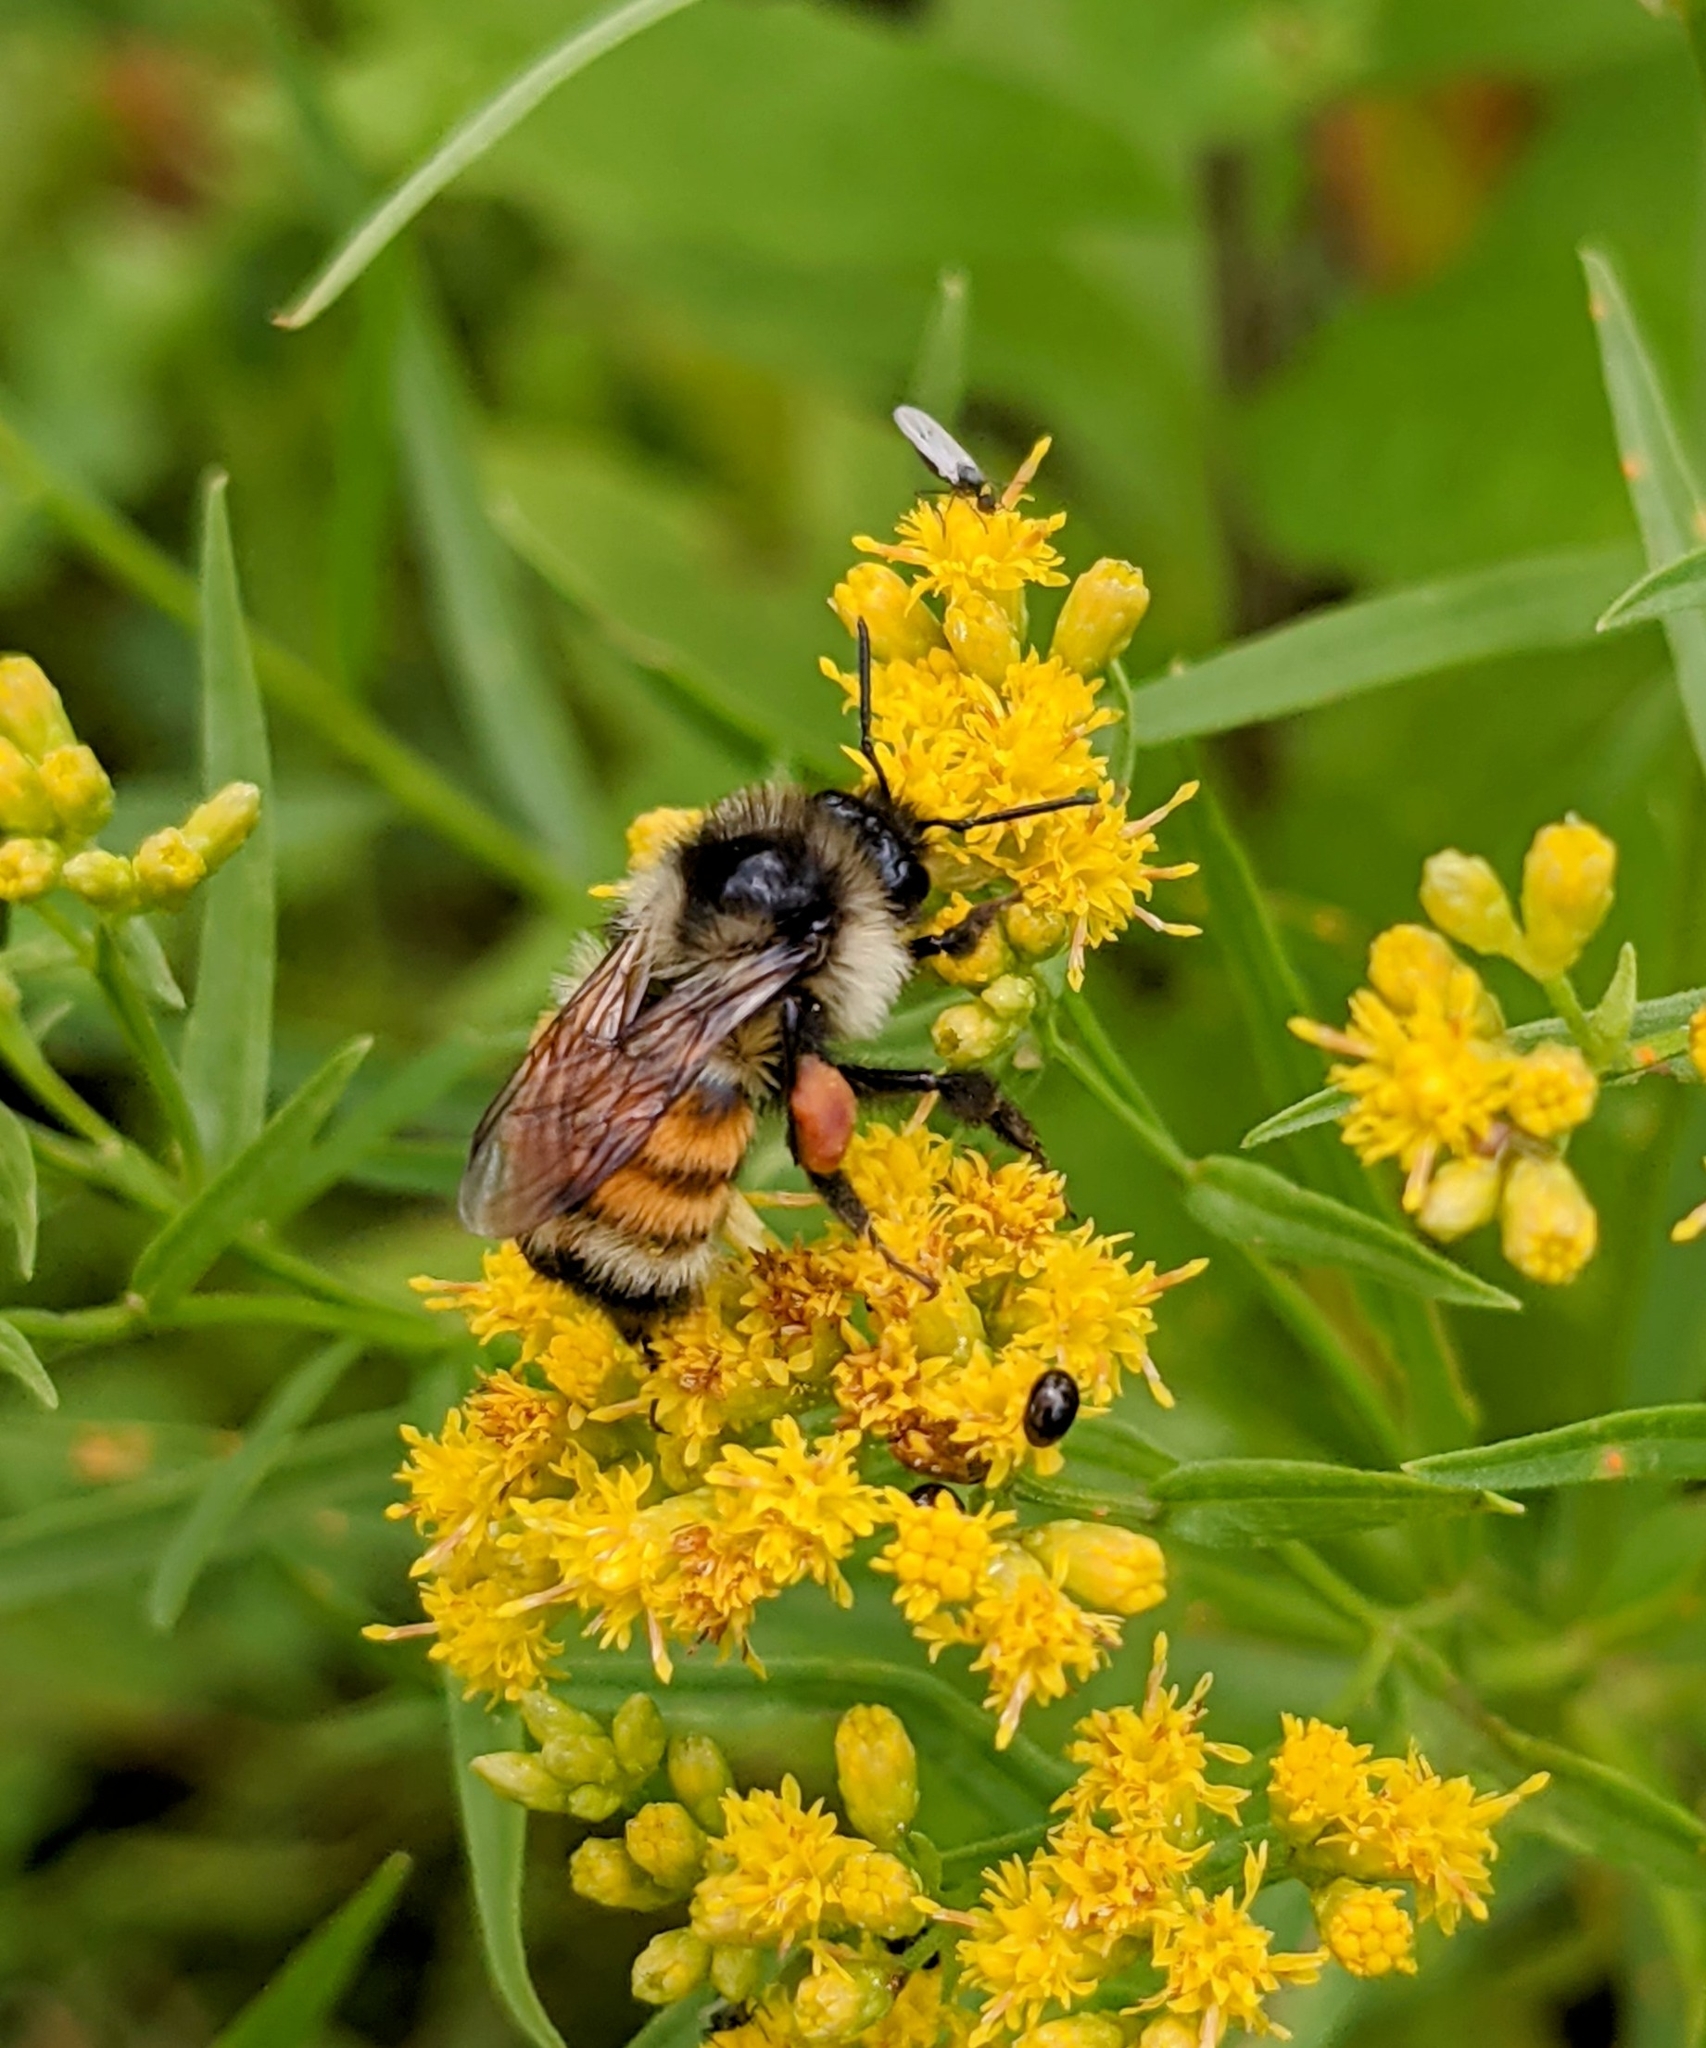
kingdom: Animalia
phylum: Arthropoda
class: Insecta
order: Hymenoptera
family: Apidae
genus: Bombus
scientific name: Bombus ternarius
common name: Tri-colored bumble bee
